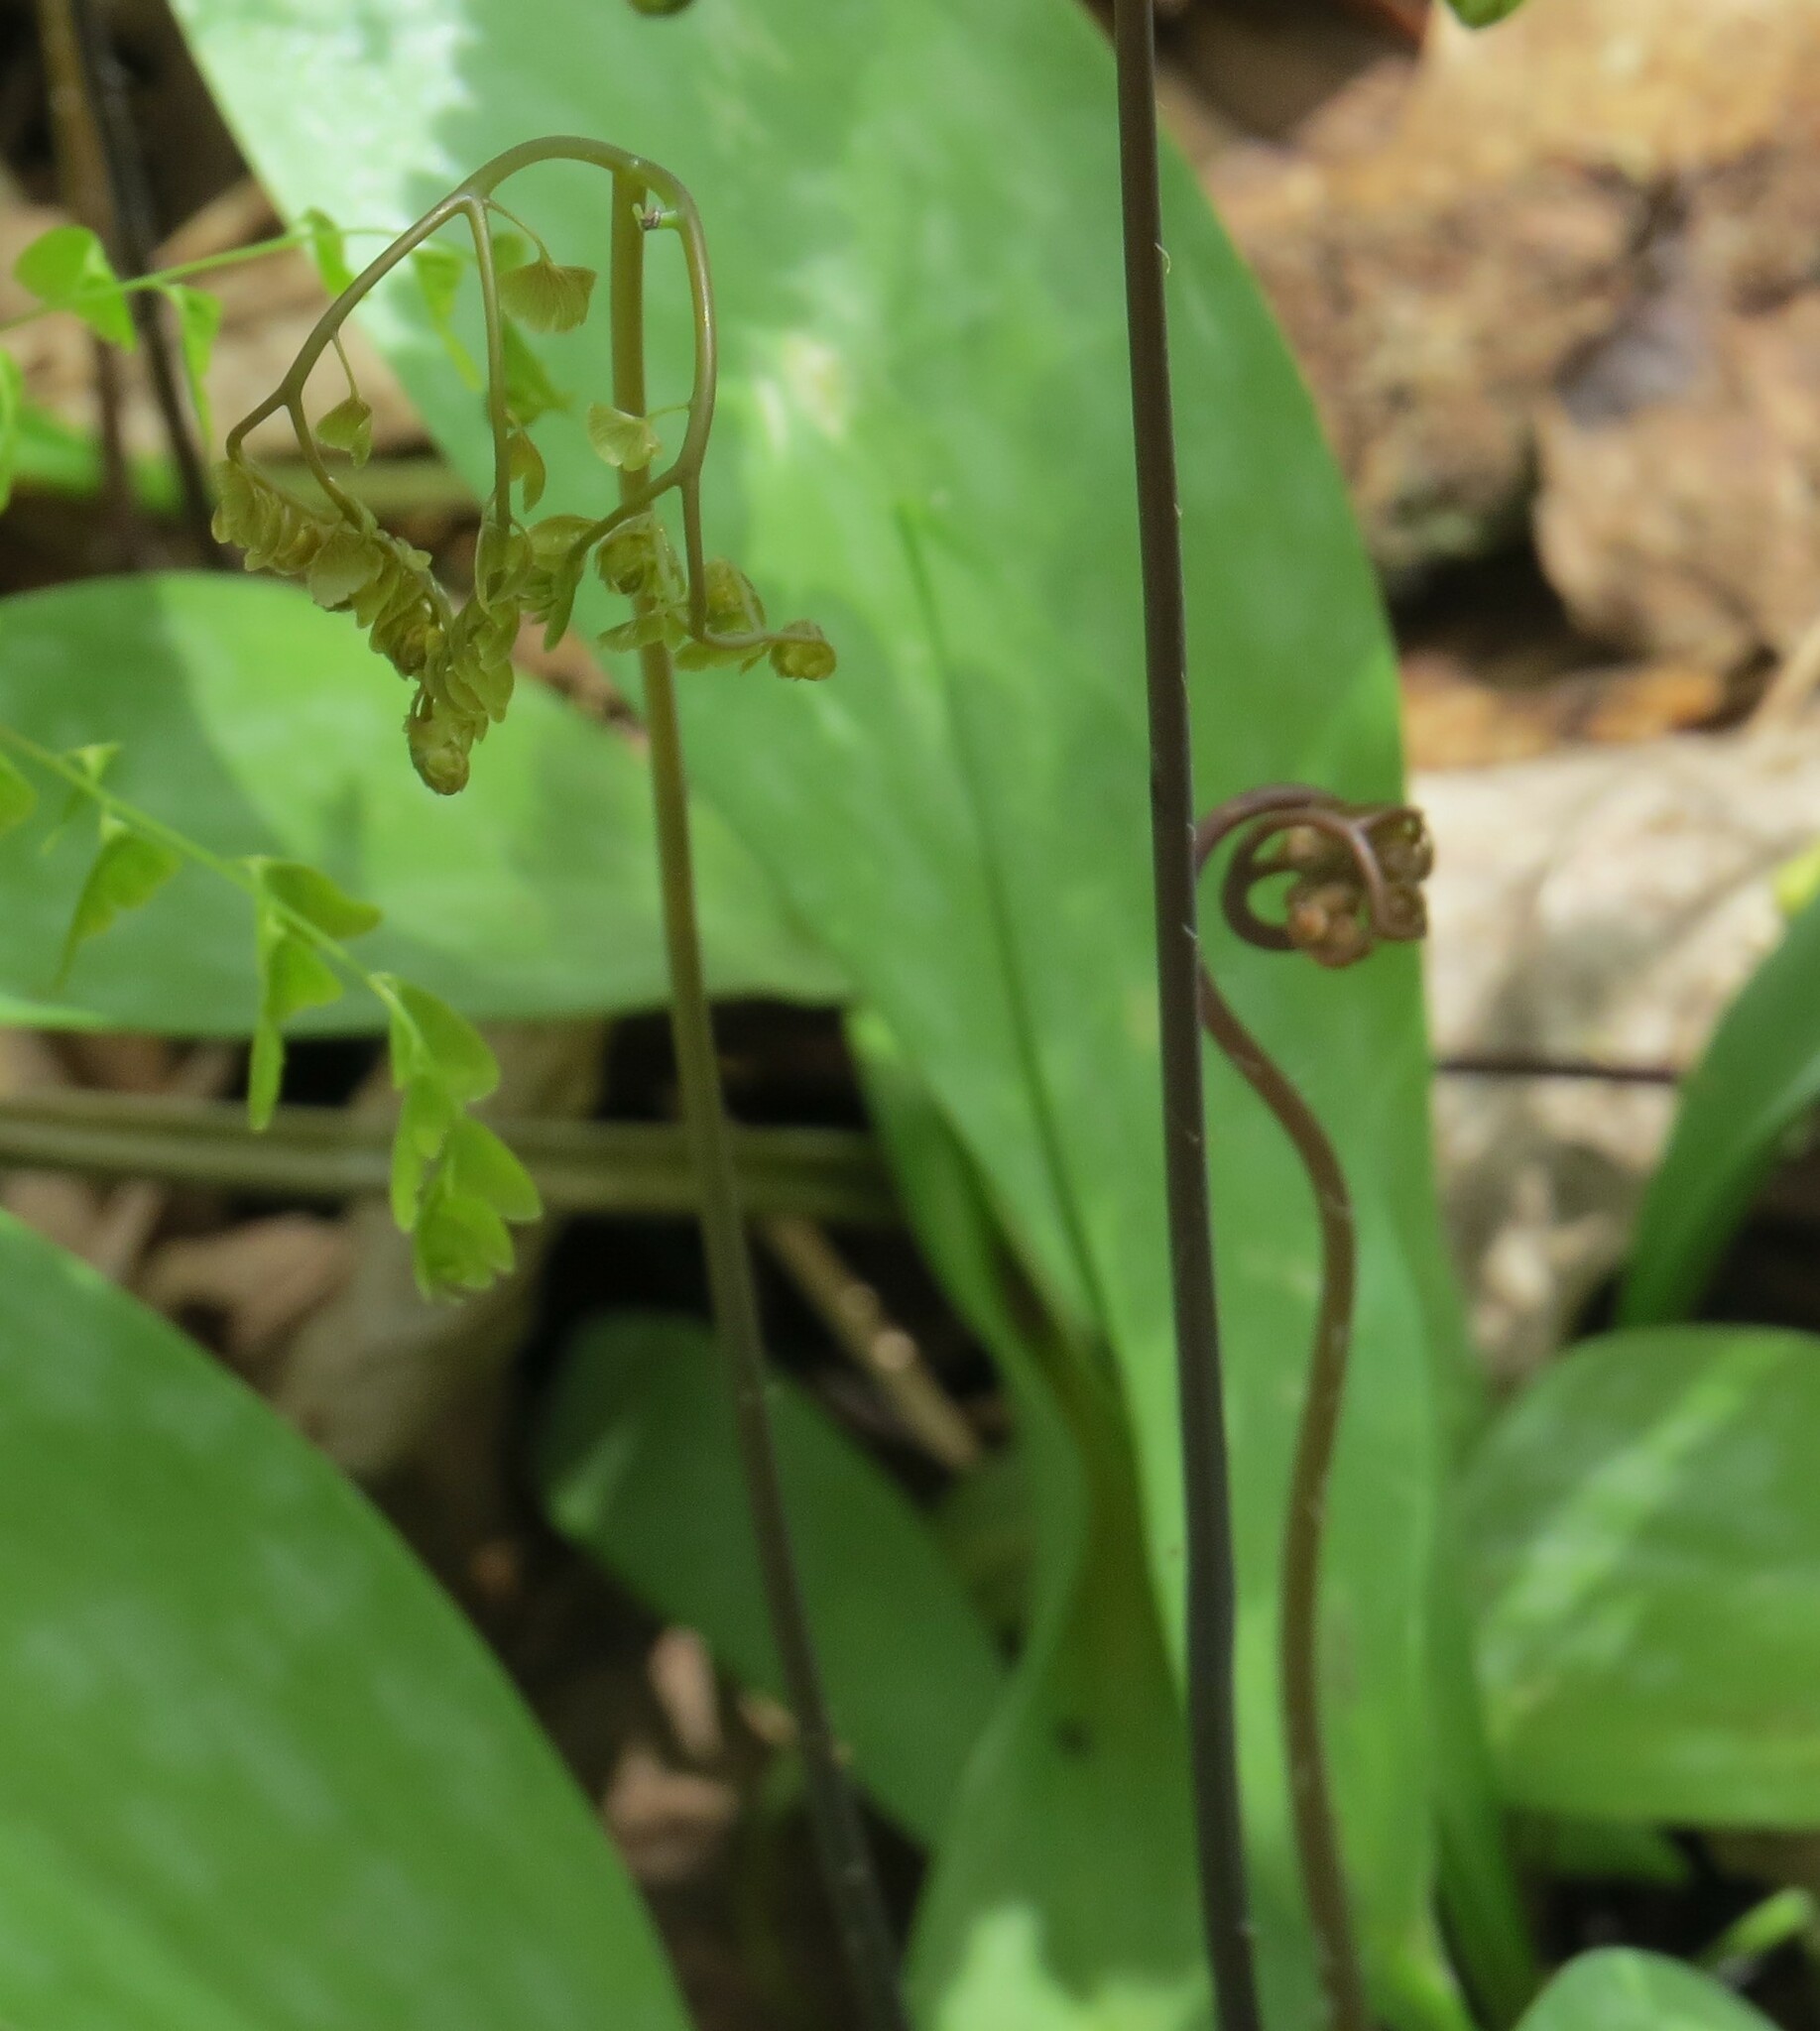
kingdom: Plantae
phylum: Tracheophyta
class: Polypodiopsida
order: Polypodiales
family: Pteridaceae
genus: Adiantum
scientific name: Adiantum pedatum
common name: Five-finger fern
